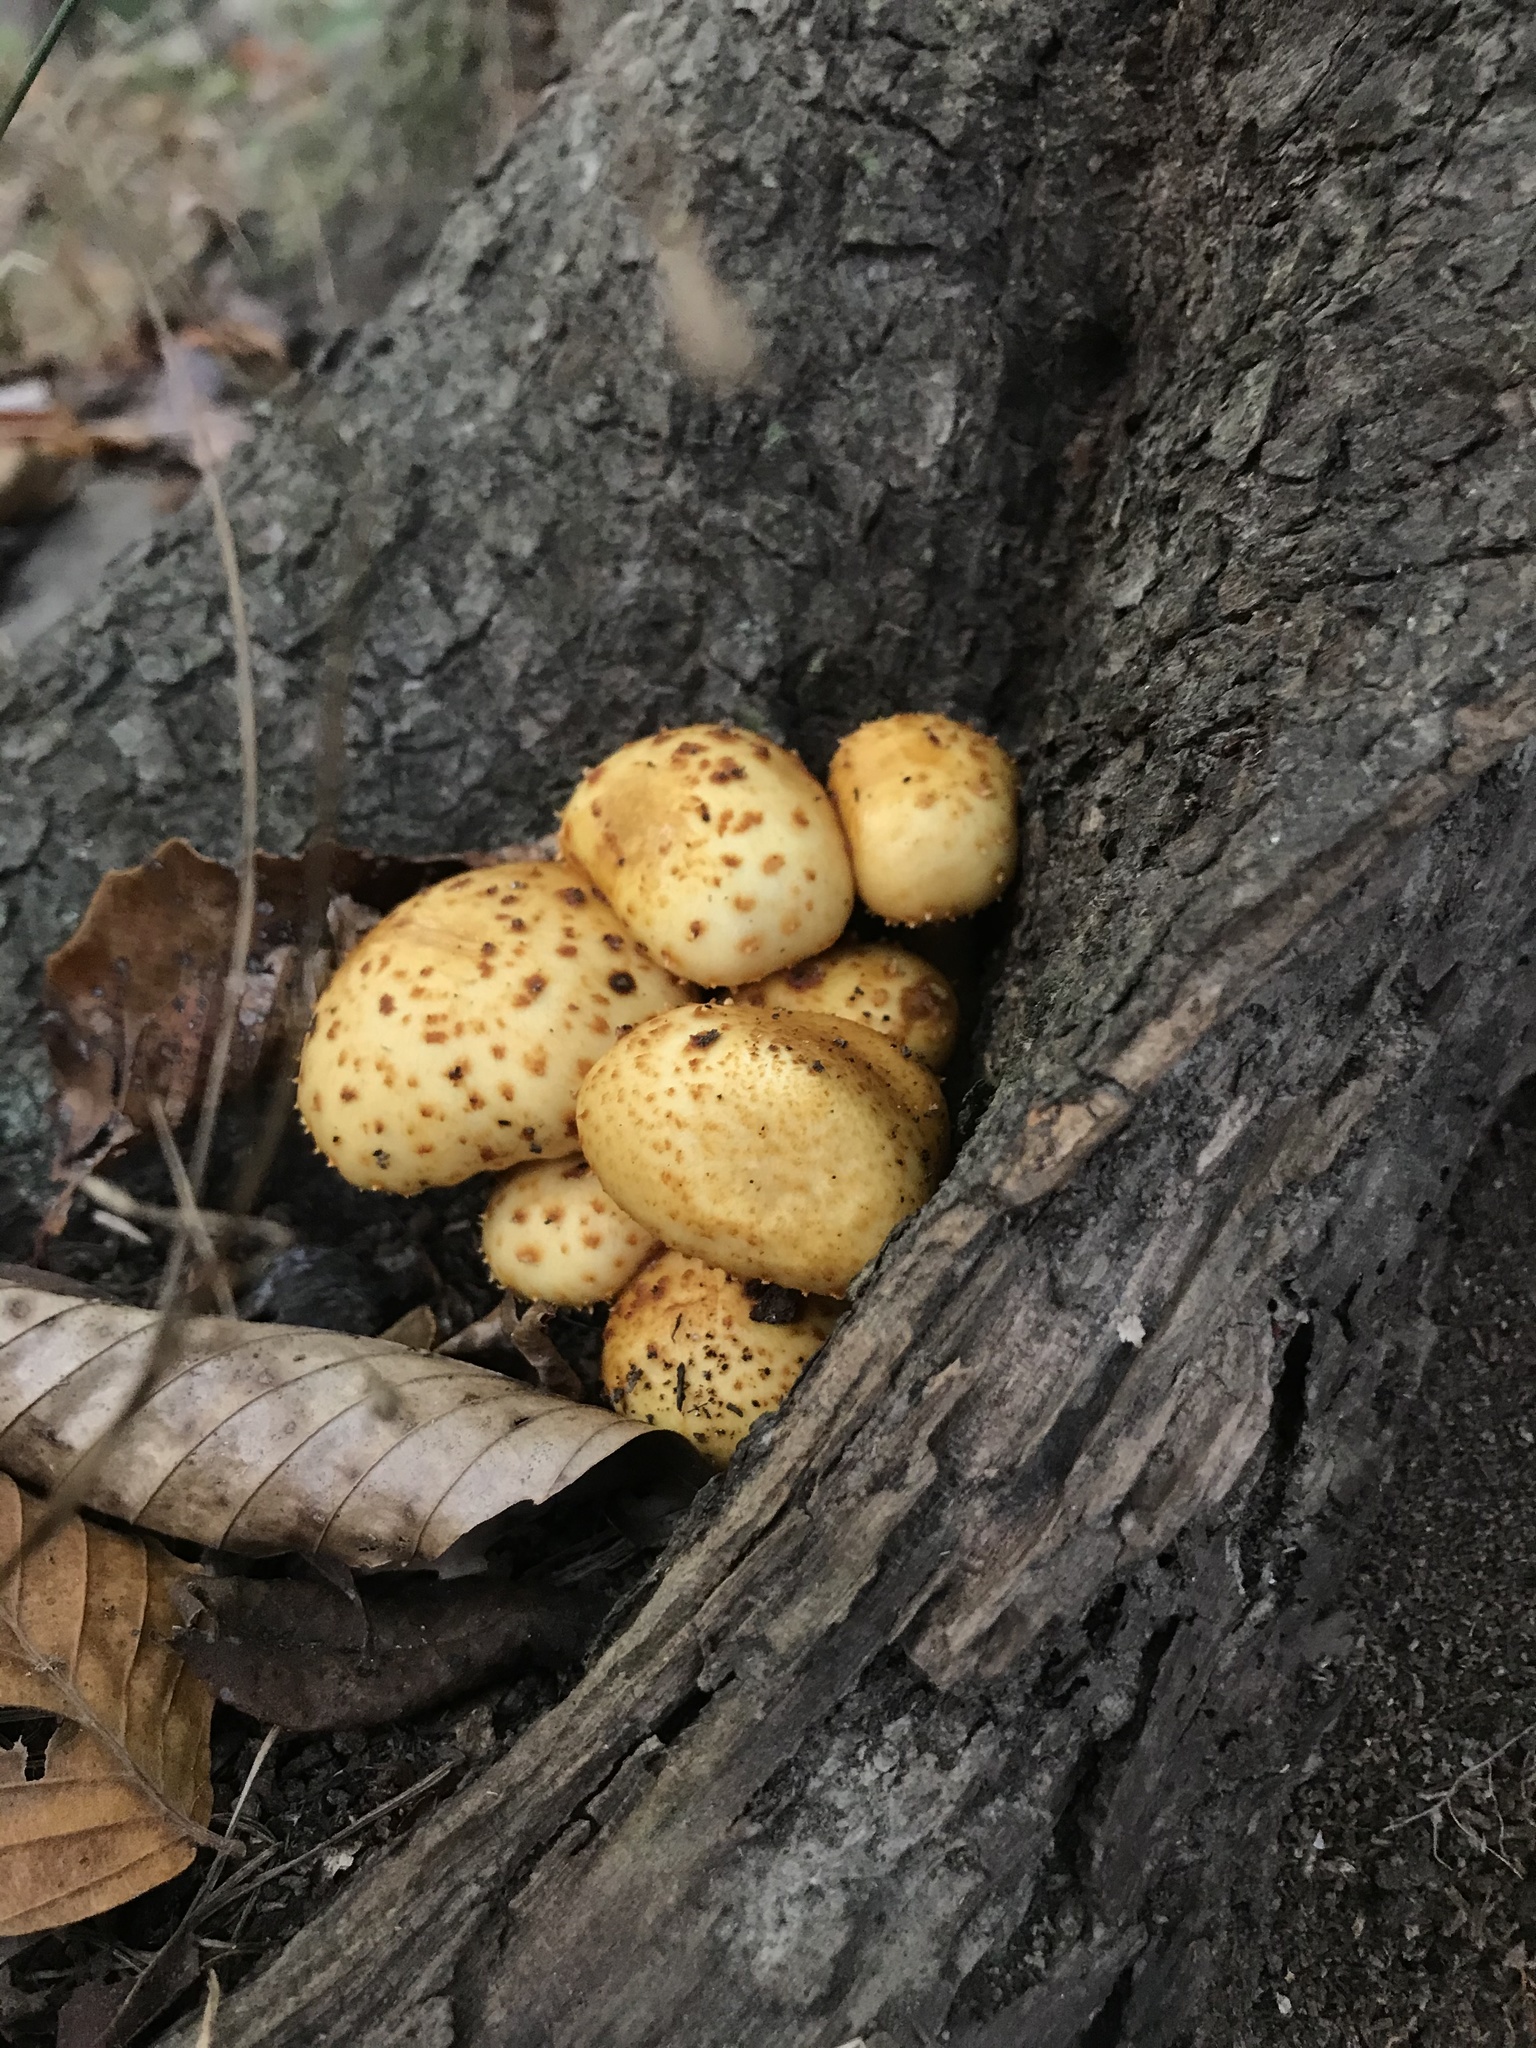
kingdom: Fungi
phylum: Basidiomycota
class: Agaricomycetes
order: Agaricales
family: Strophariaceae
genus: Pholiota
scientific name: Pholiota aurivella
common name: Golden scalycap
